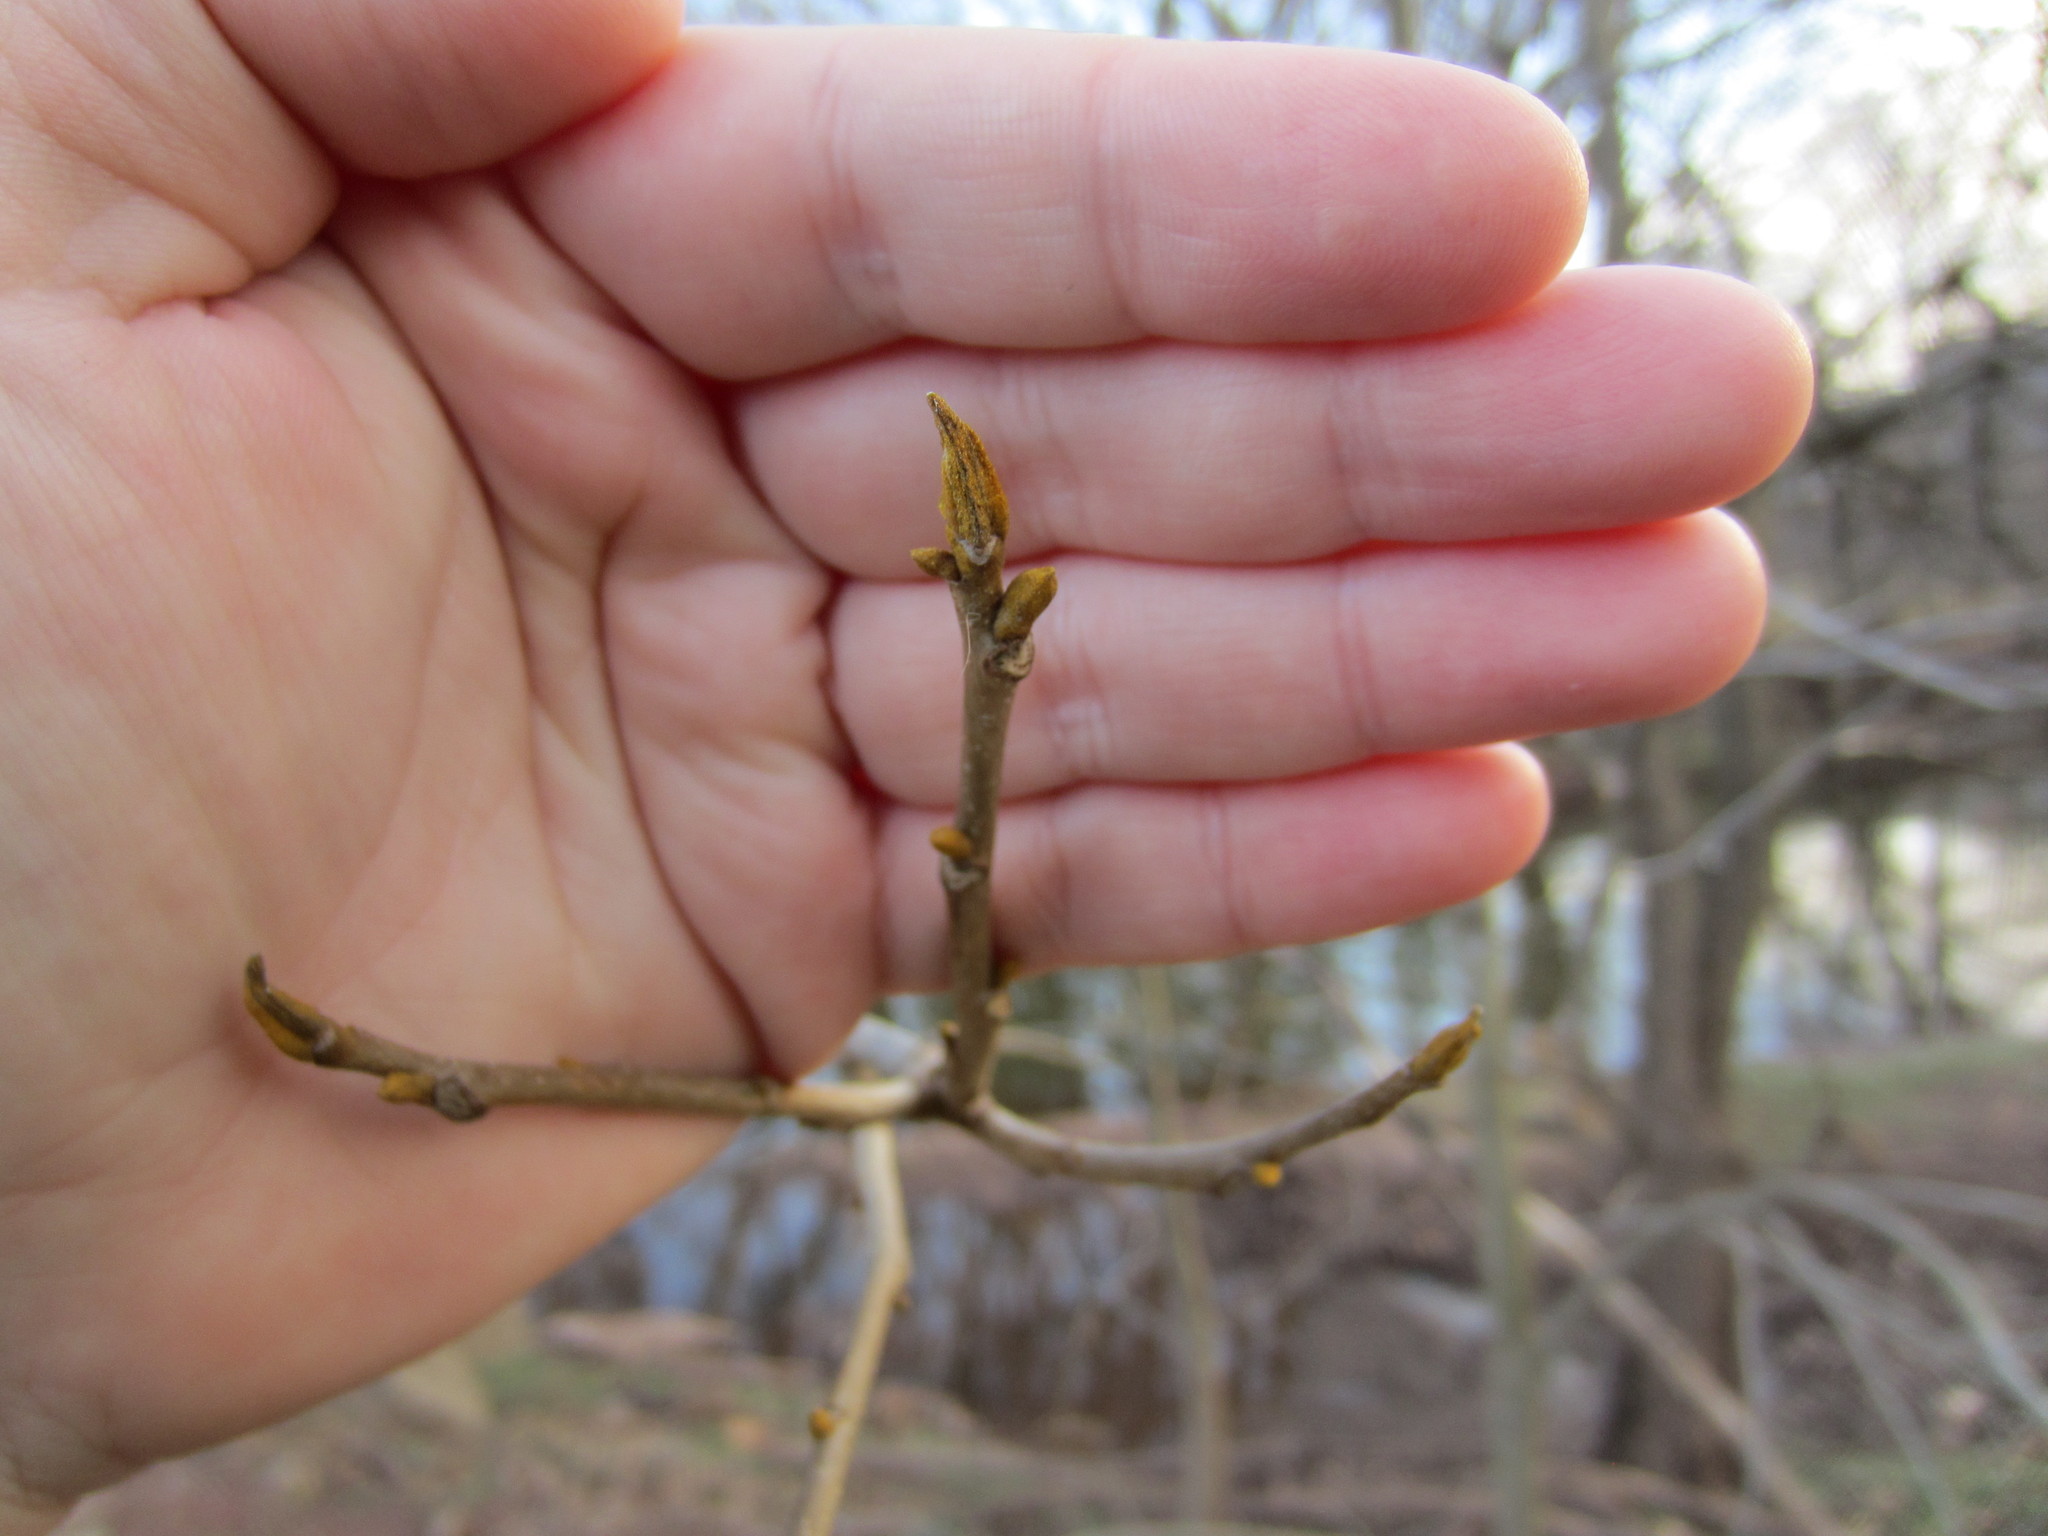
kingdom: Plantae
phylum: Tracheophyta
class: Magnoliopsida
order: Fagales
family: Juglandaceae
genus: Carya
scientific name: Carya cordiformis
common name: Bitternut hickory
